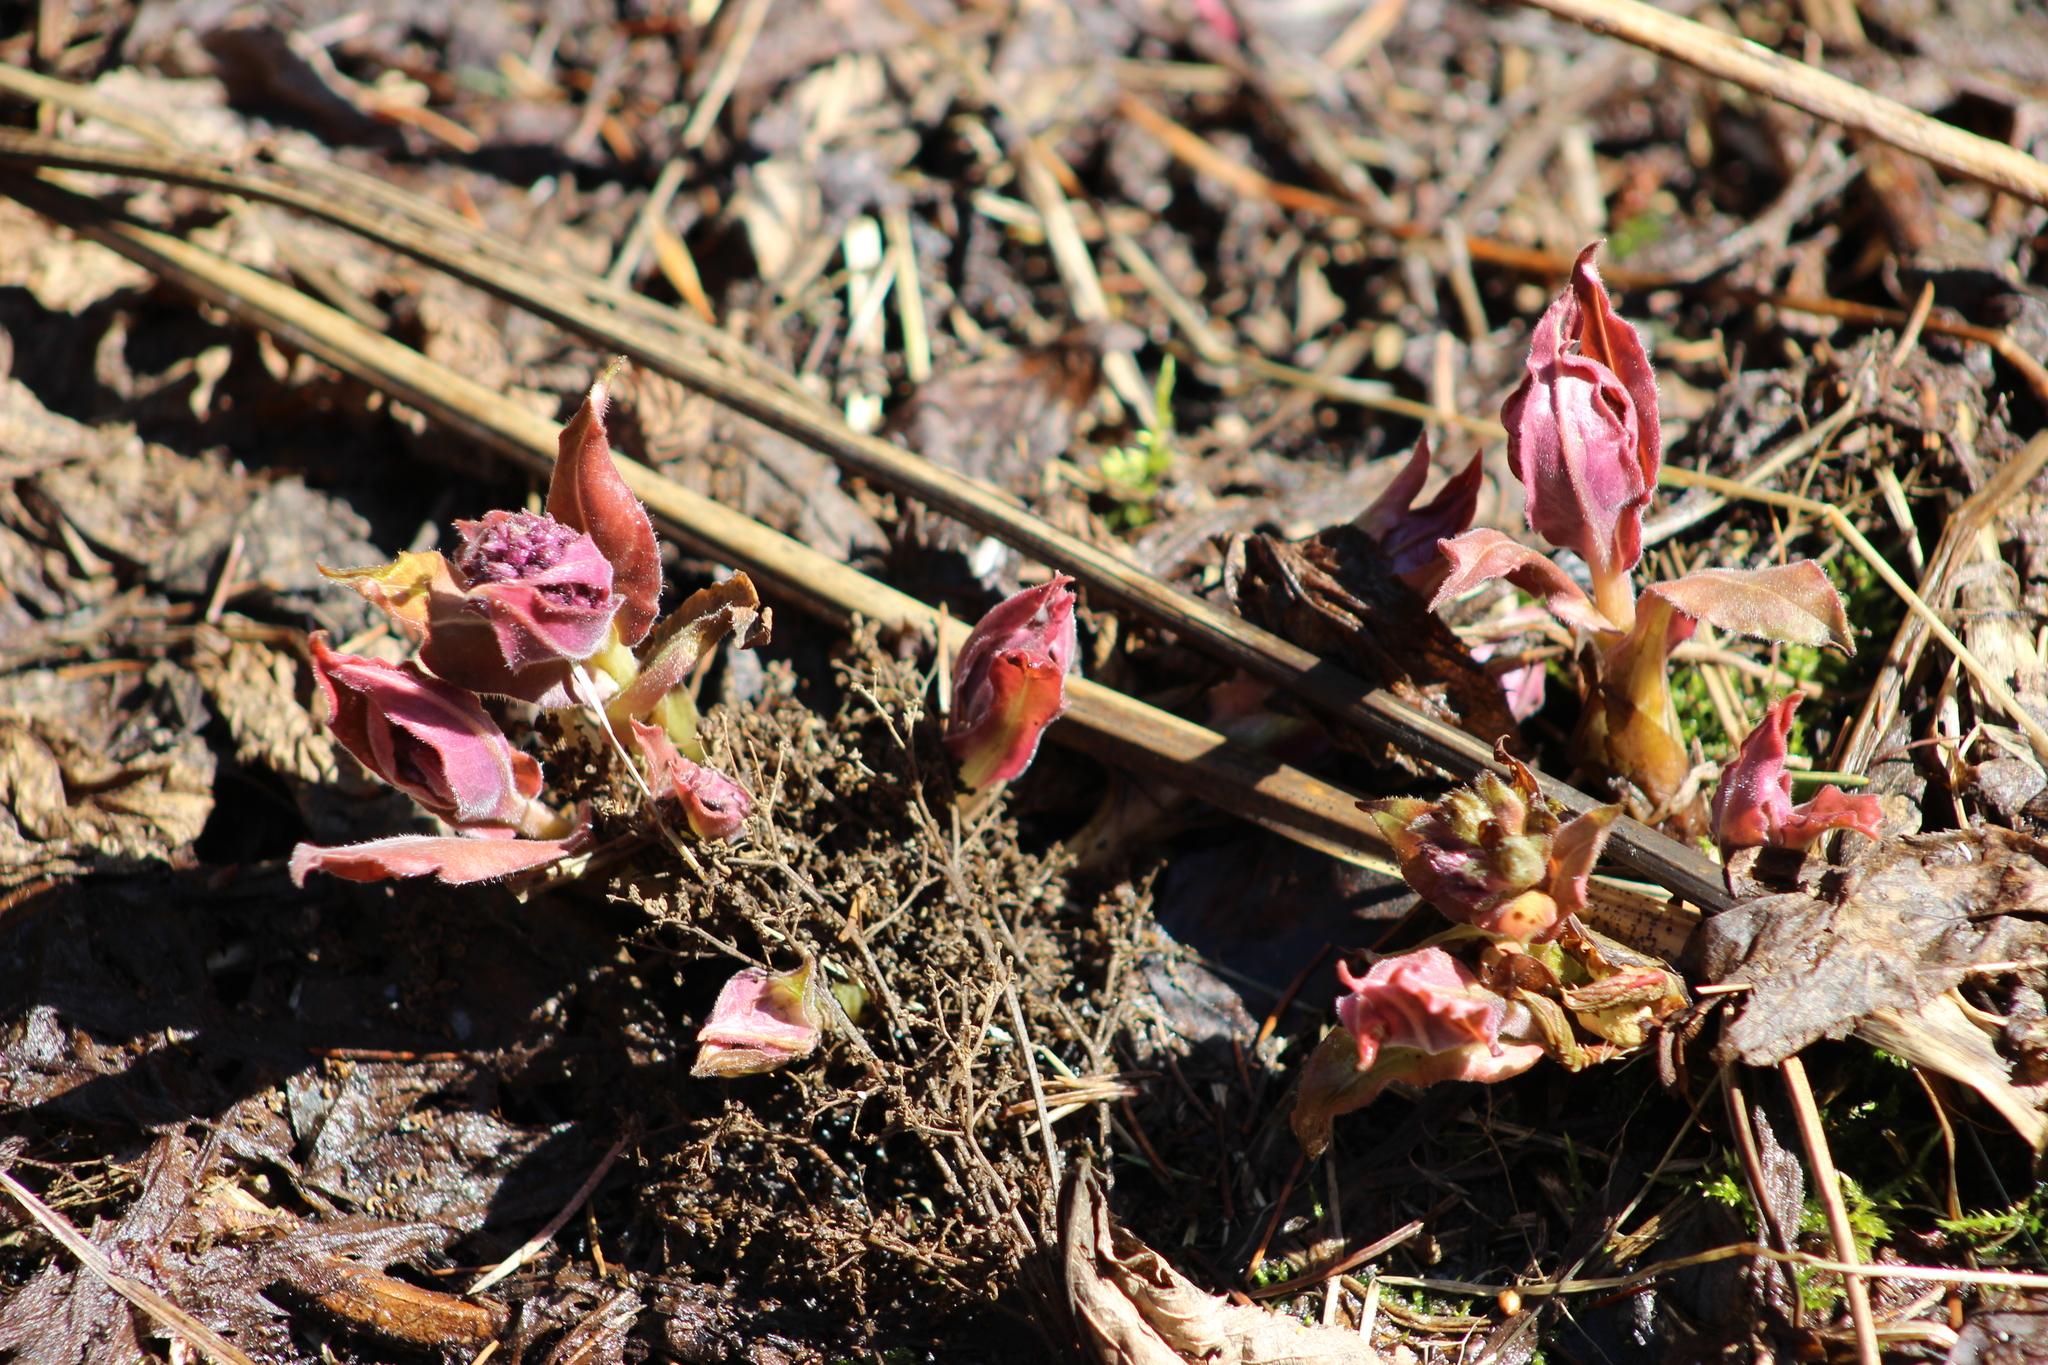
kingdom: Plantae
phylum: Tracheophyta
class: Magnoliopsida
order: Boraginales
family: Boraginaceae
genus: Pulmonaria
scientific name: Pulmonaria mollis
